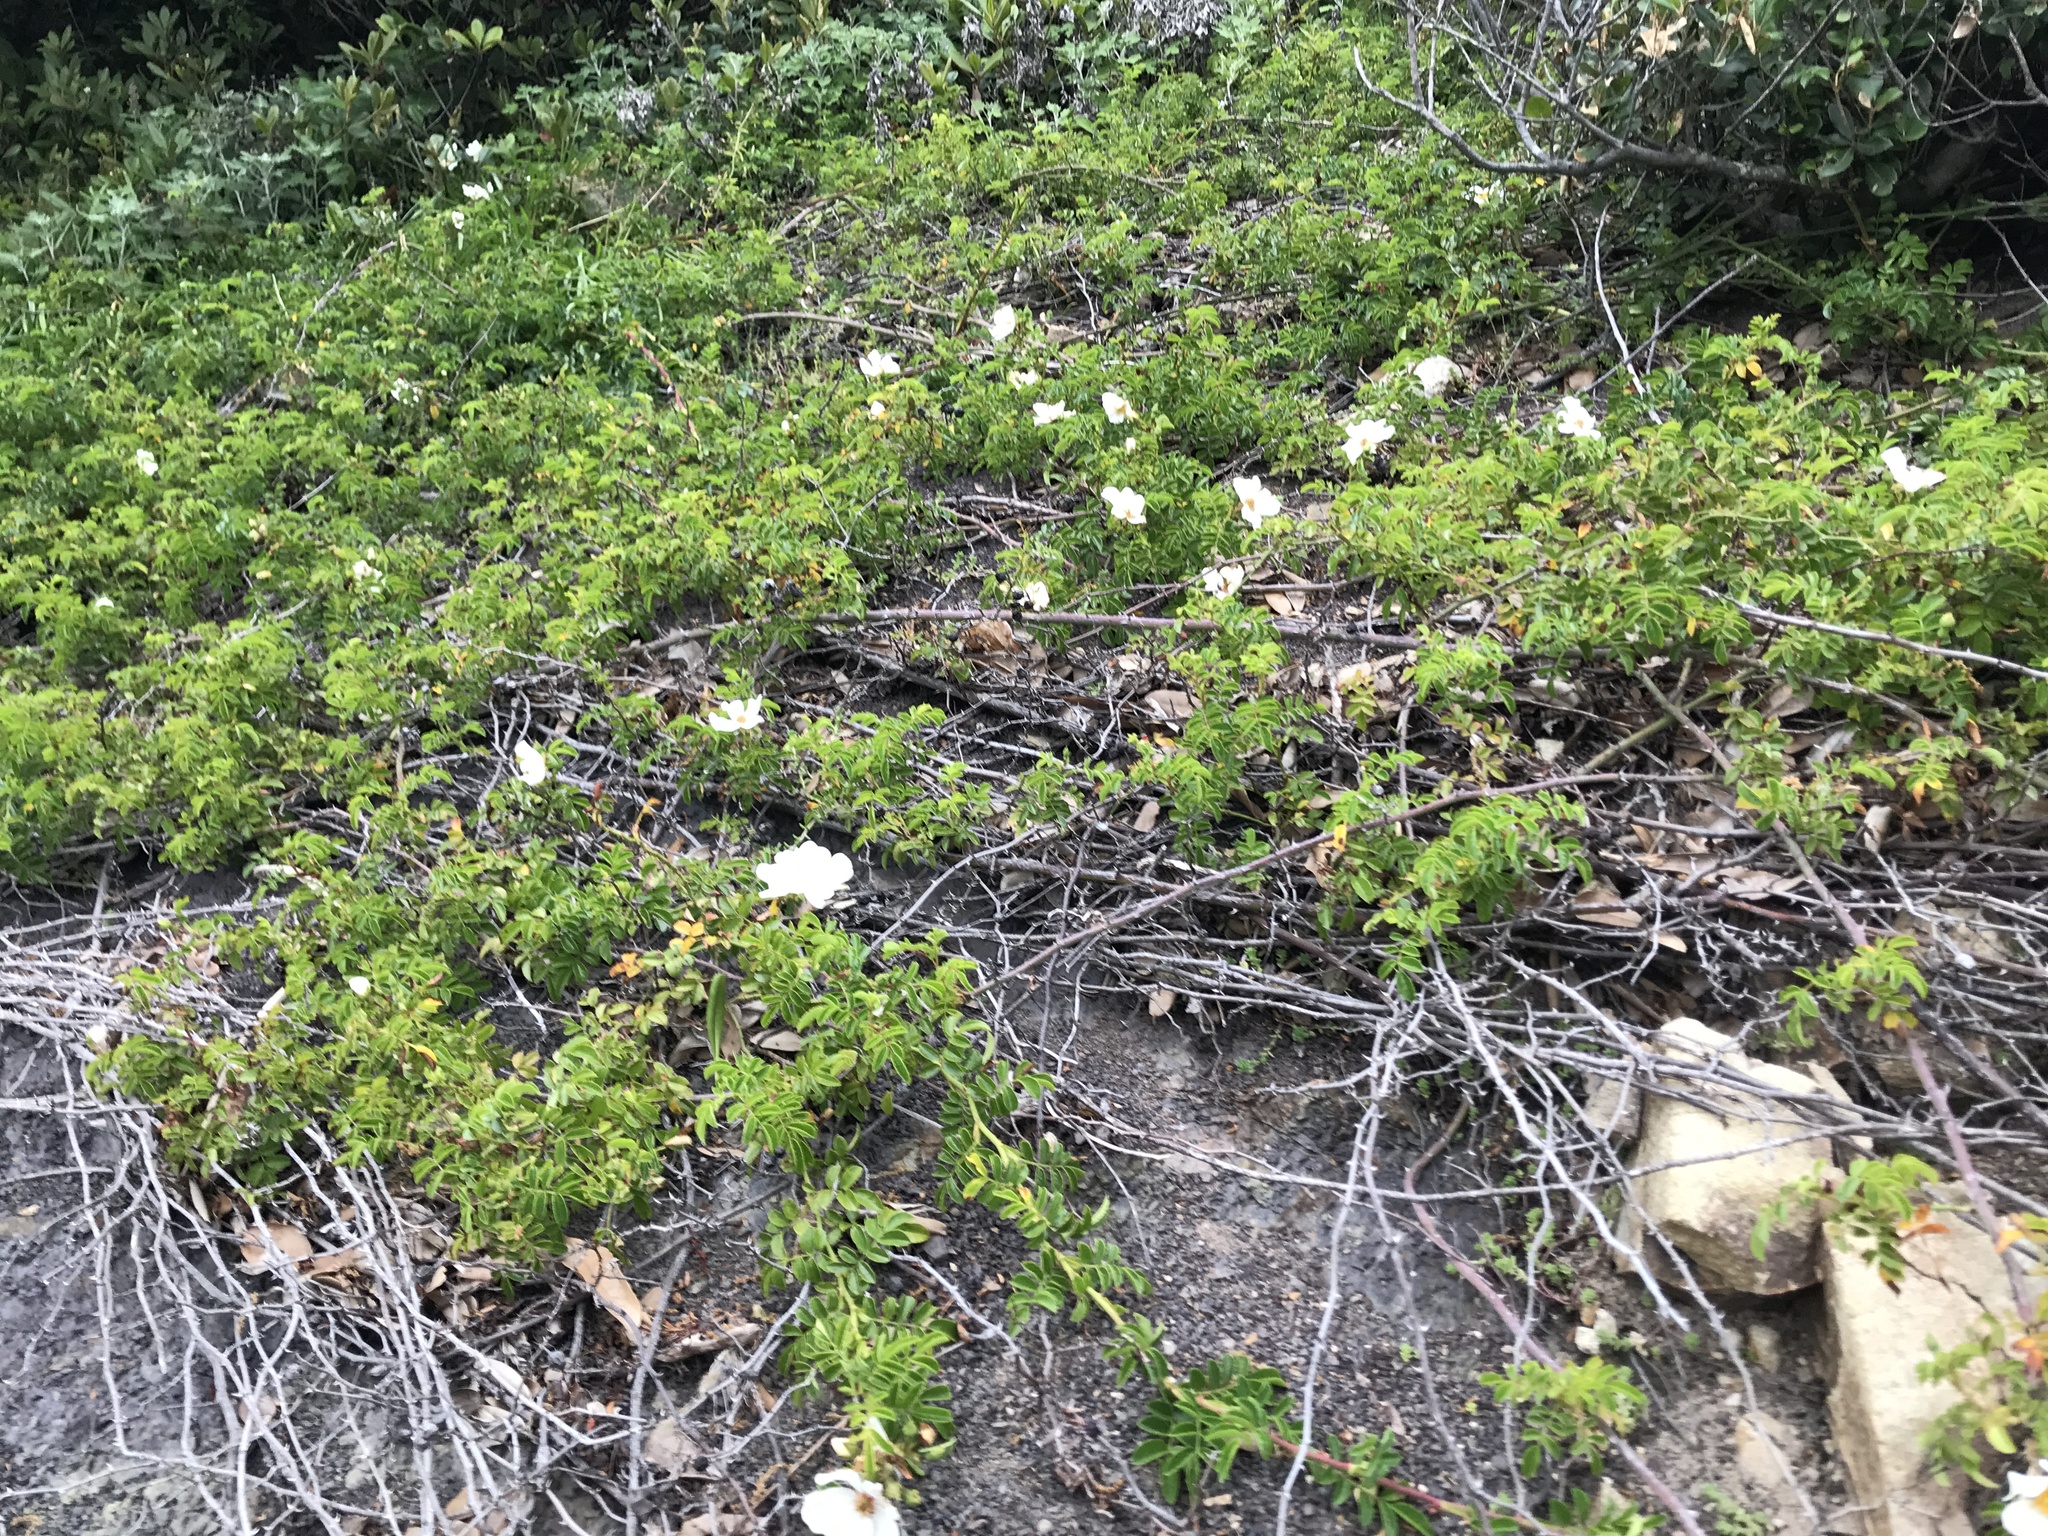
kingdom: Plantae
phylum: Tracheophyta
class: Magnoliopsida
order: Rosales
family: Rosaceae
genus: Rosa
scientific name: Rosa lucieae
